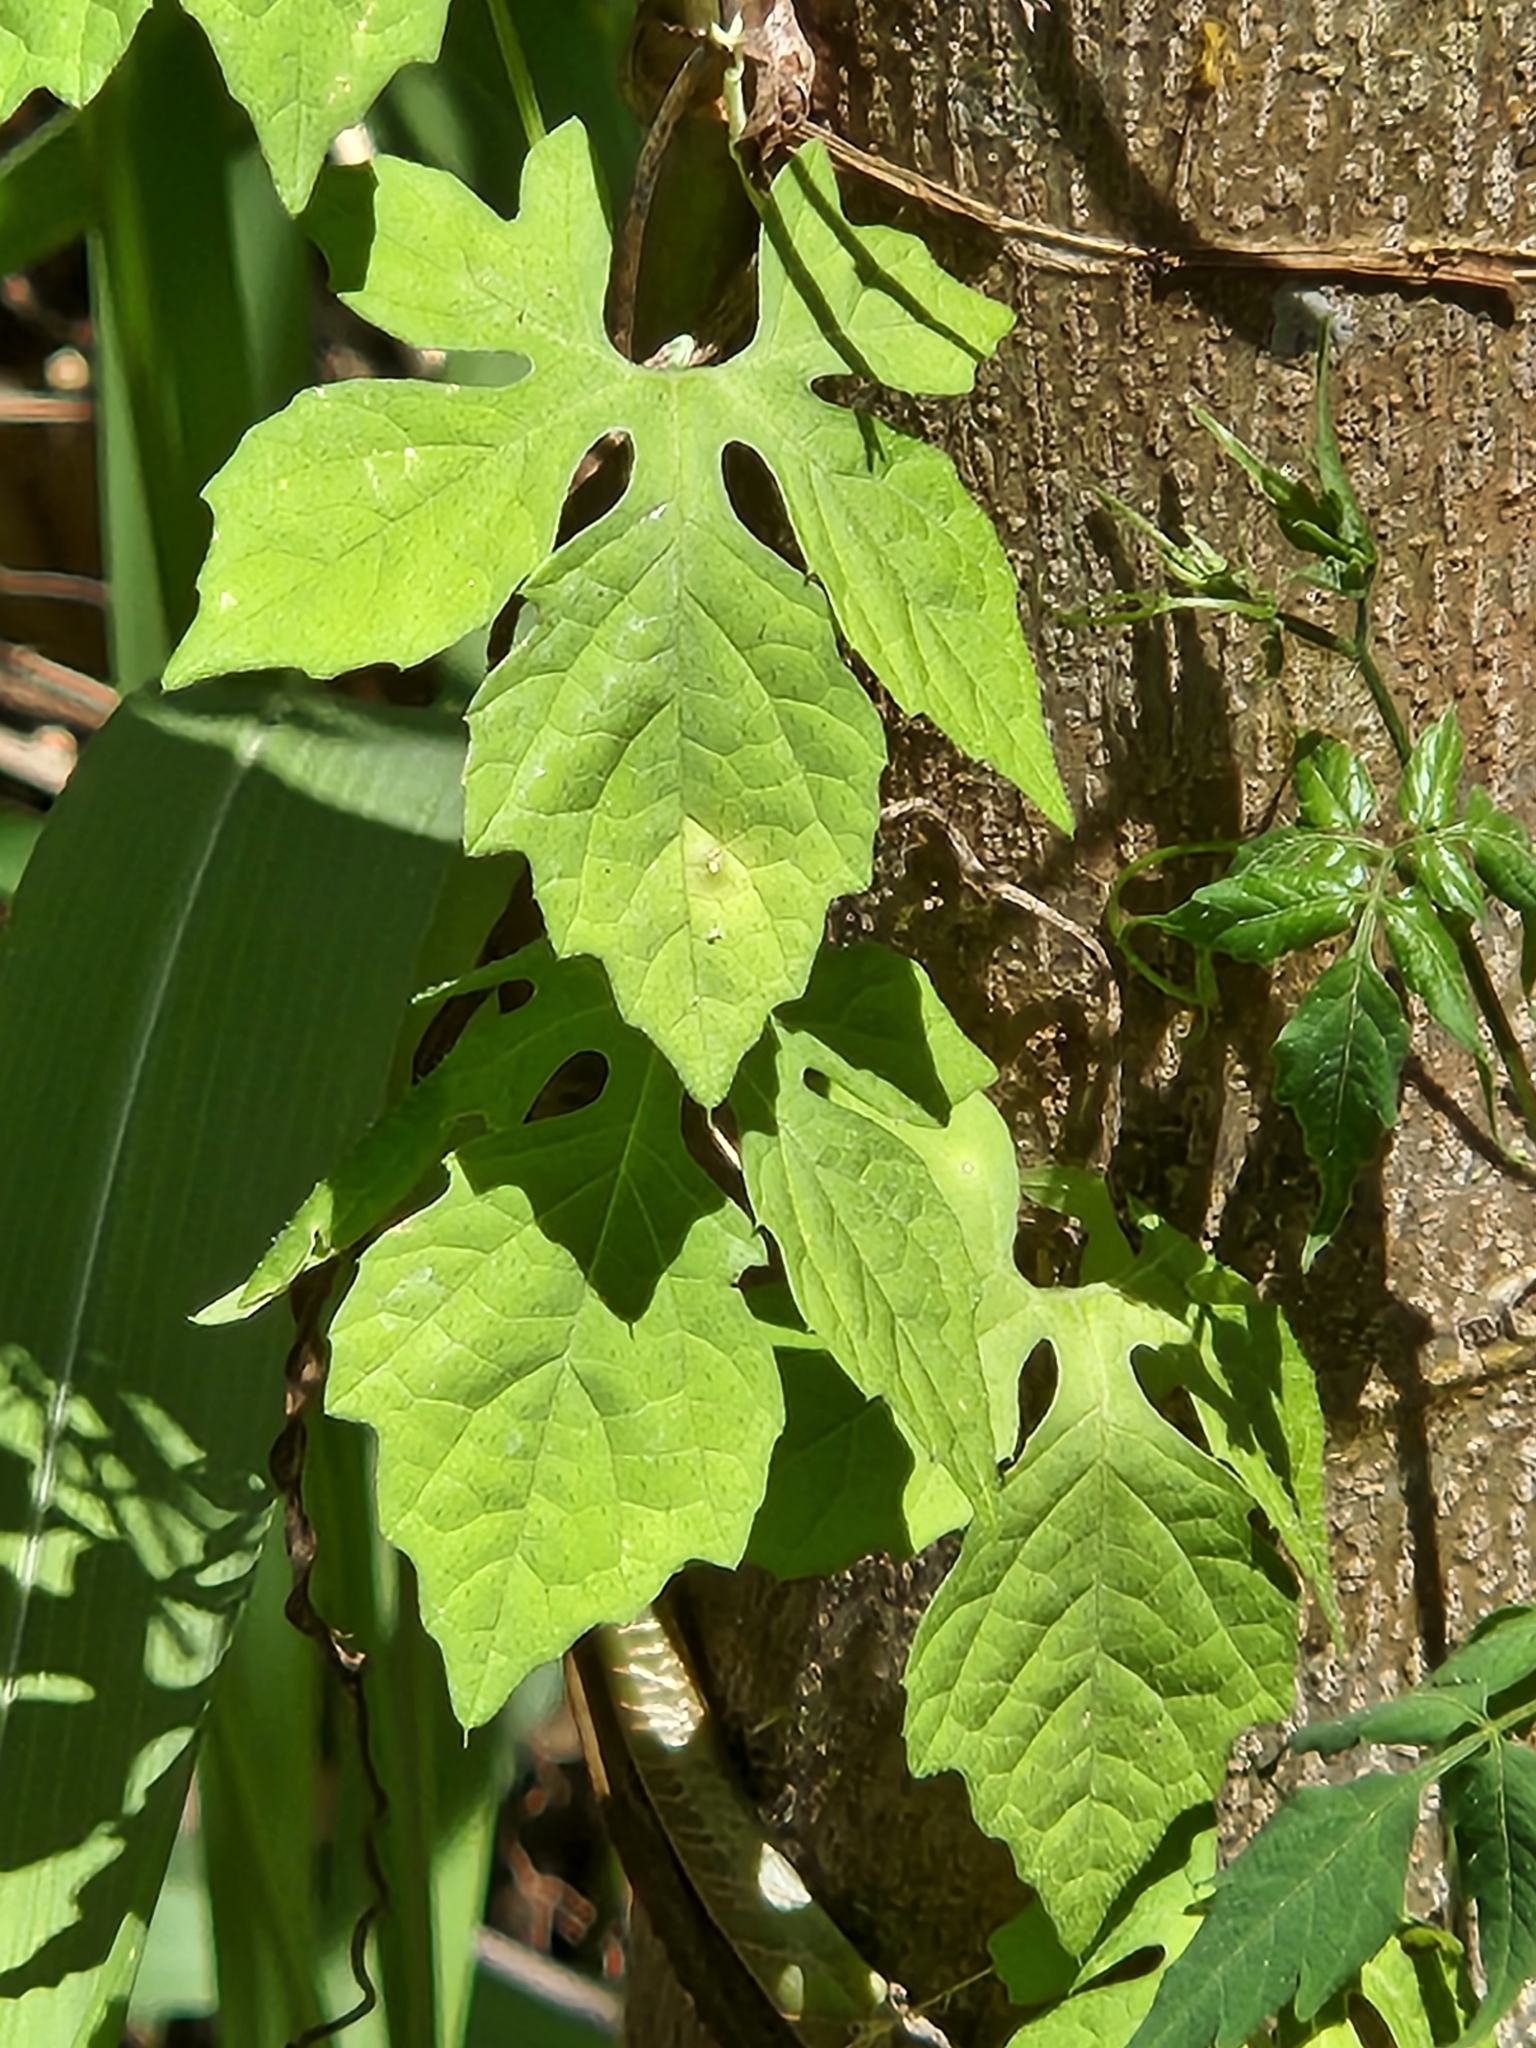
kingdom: Plantae
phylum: Tracheophyta
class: Magnoliopsida
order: Cucurbitales
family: Cucurbitaceae
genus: Momordica
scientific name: Momordica charantia
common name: Balsampear
